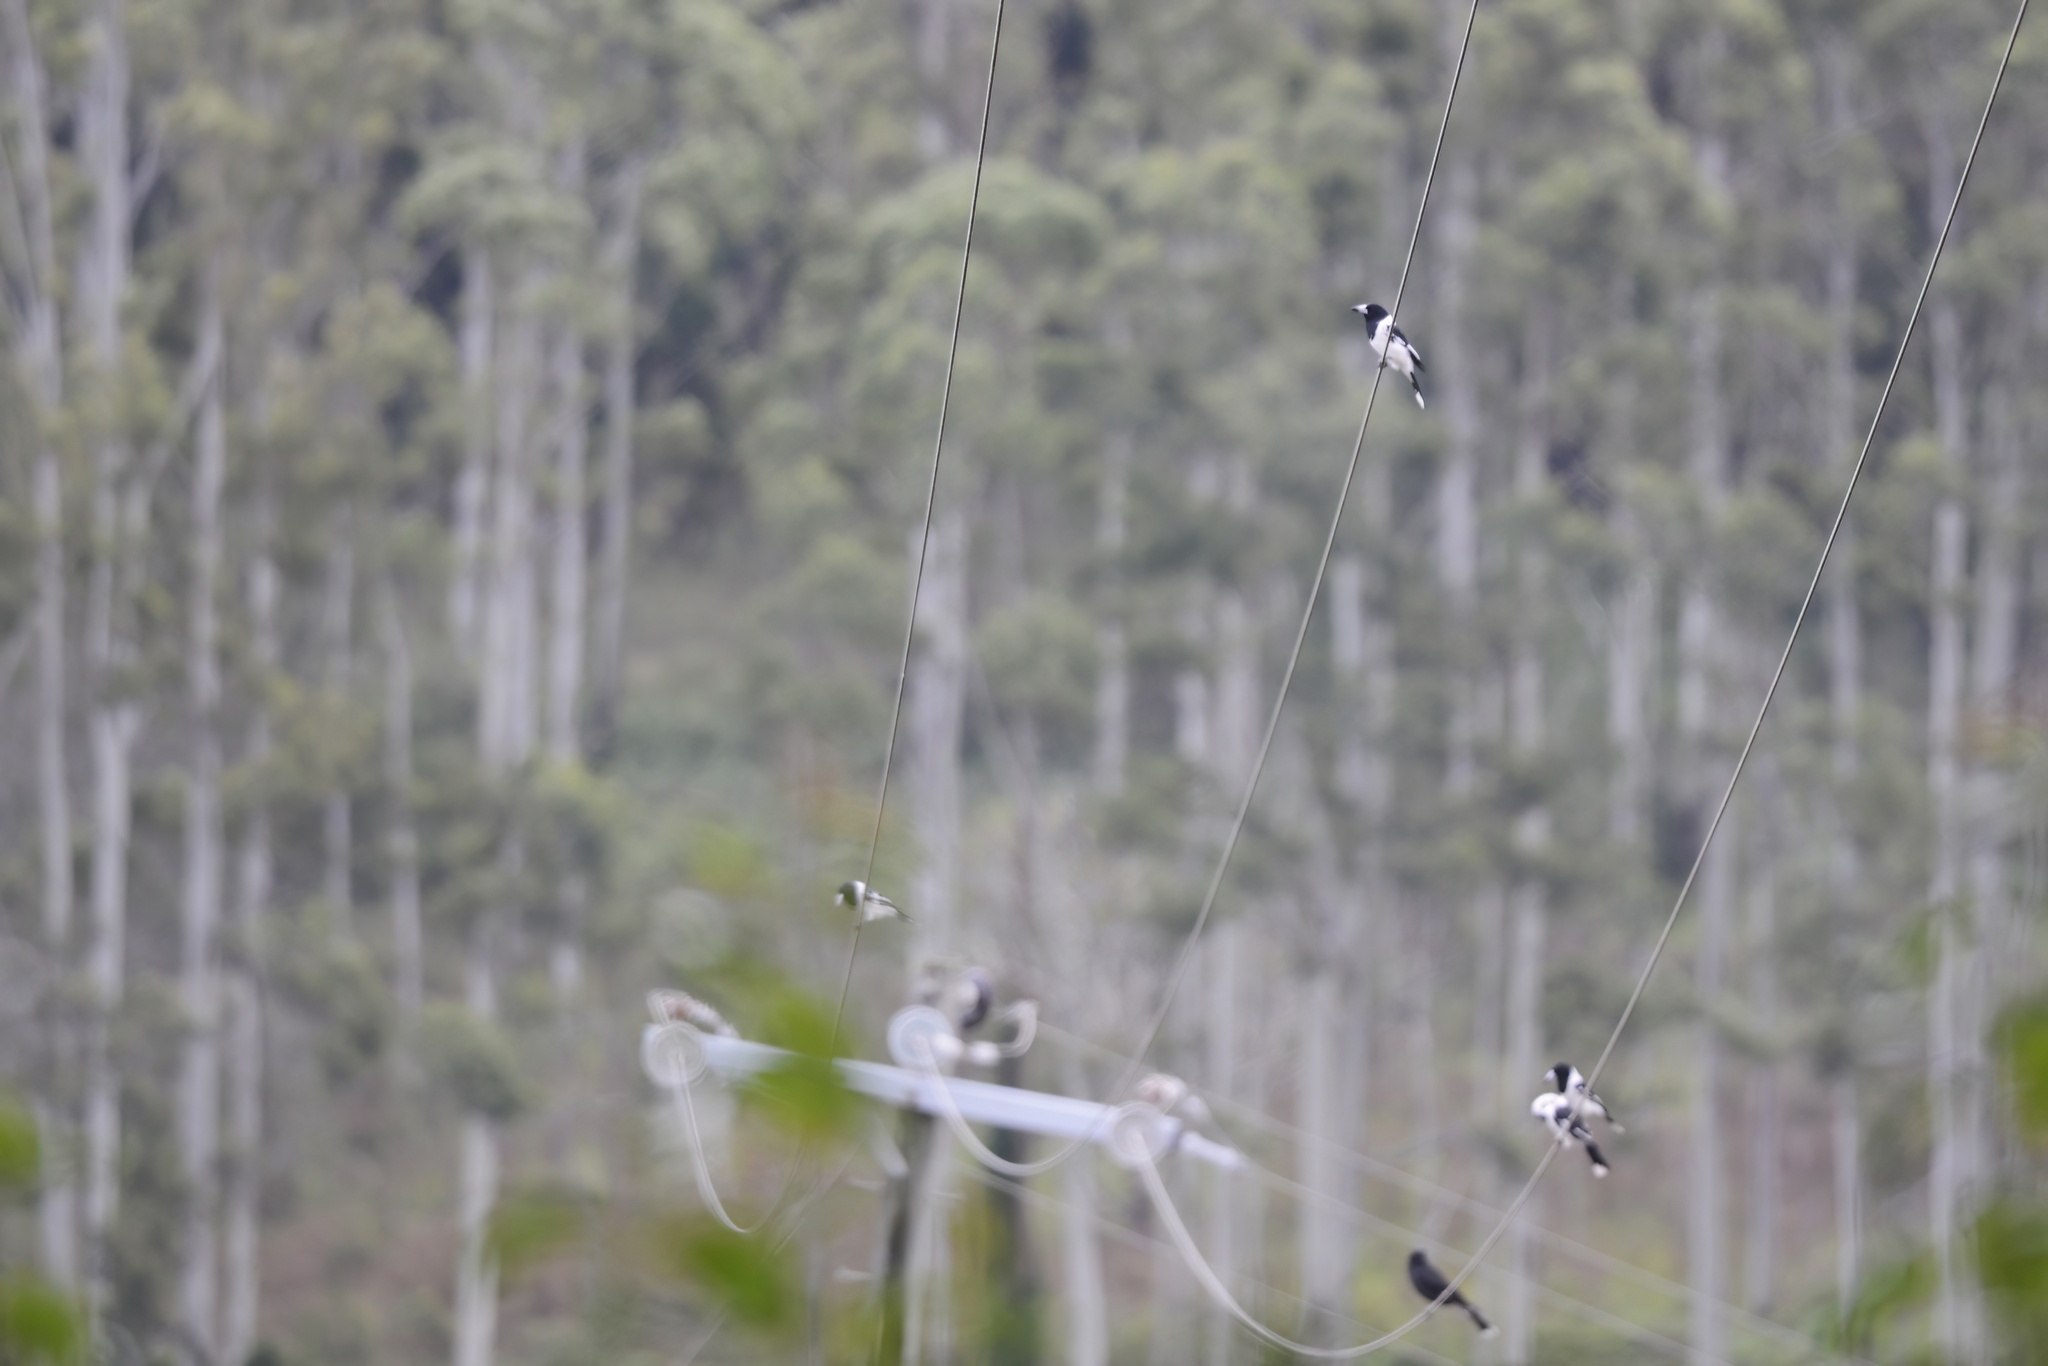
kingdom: Animalia
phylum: Chordata
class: Aves
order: Passeriformes
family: Cracticidae
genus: Cracticus
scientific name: Cracticus nigrogularis
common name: Pied butcherbird
